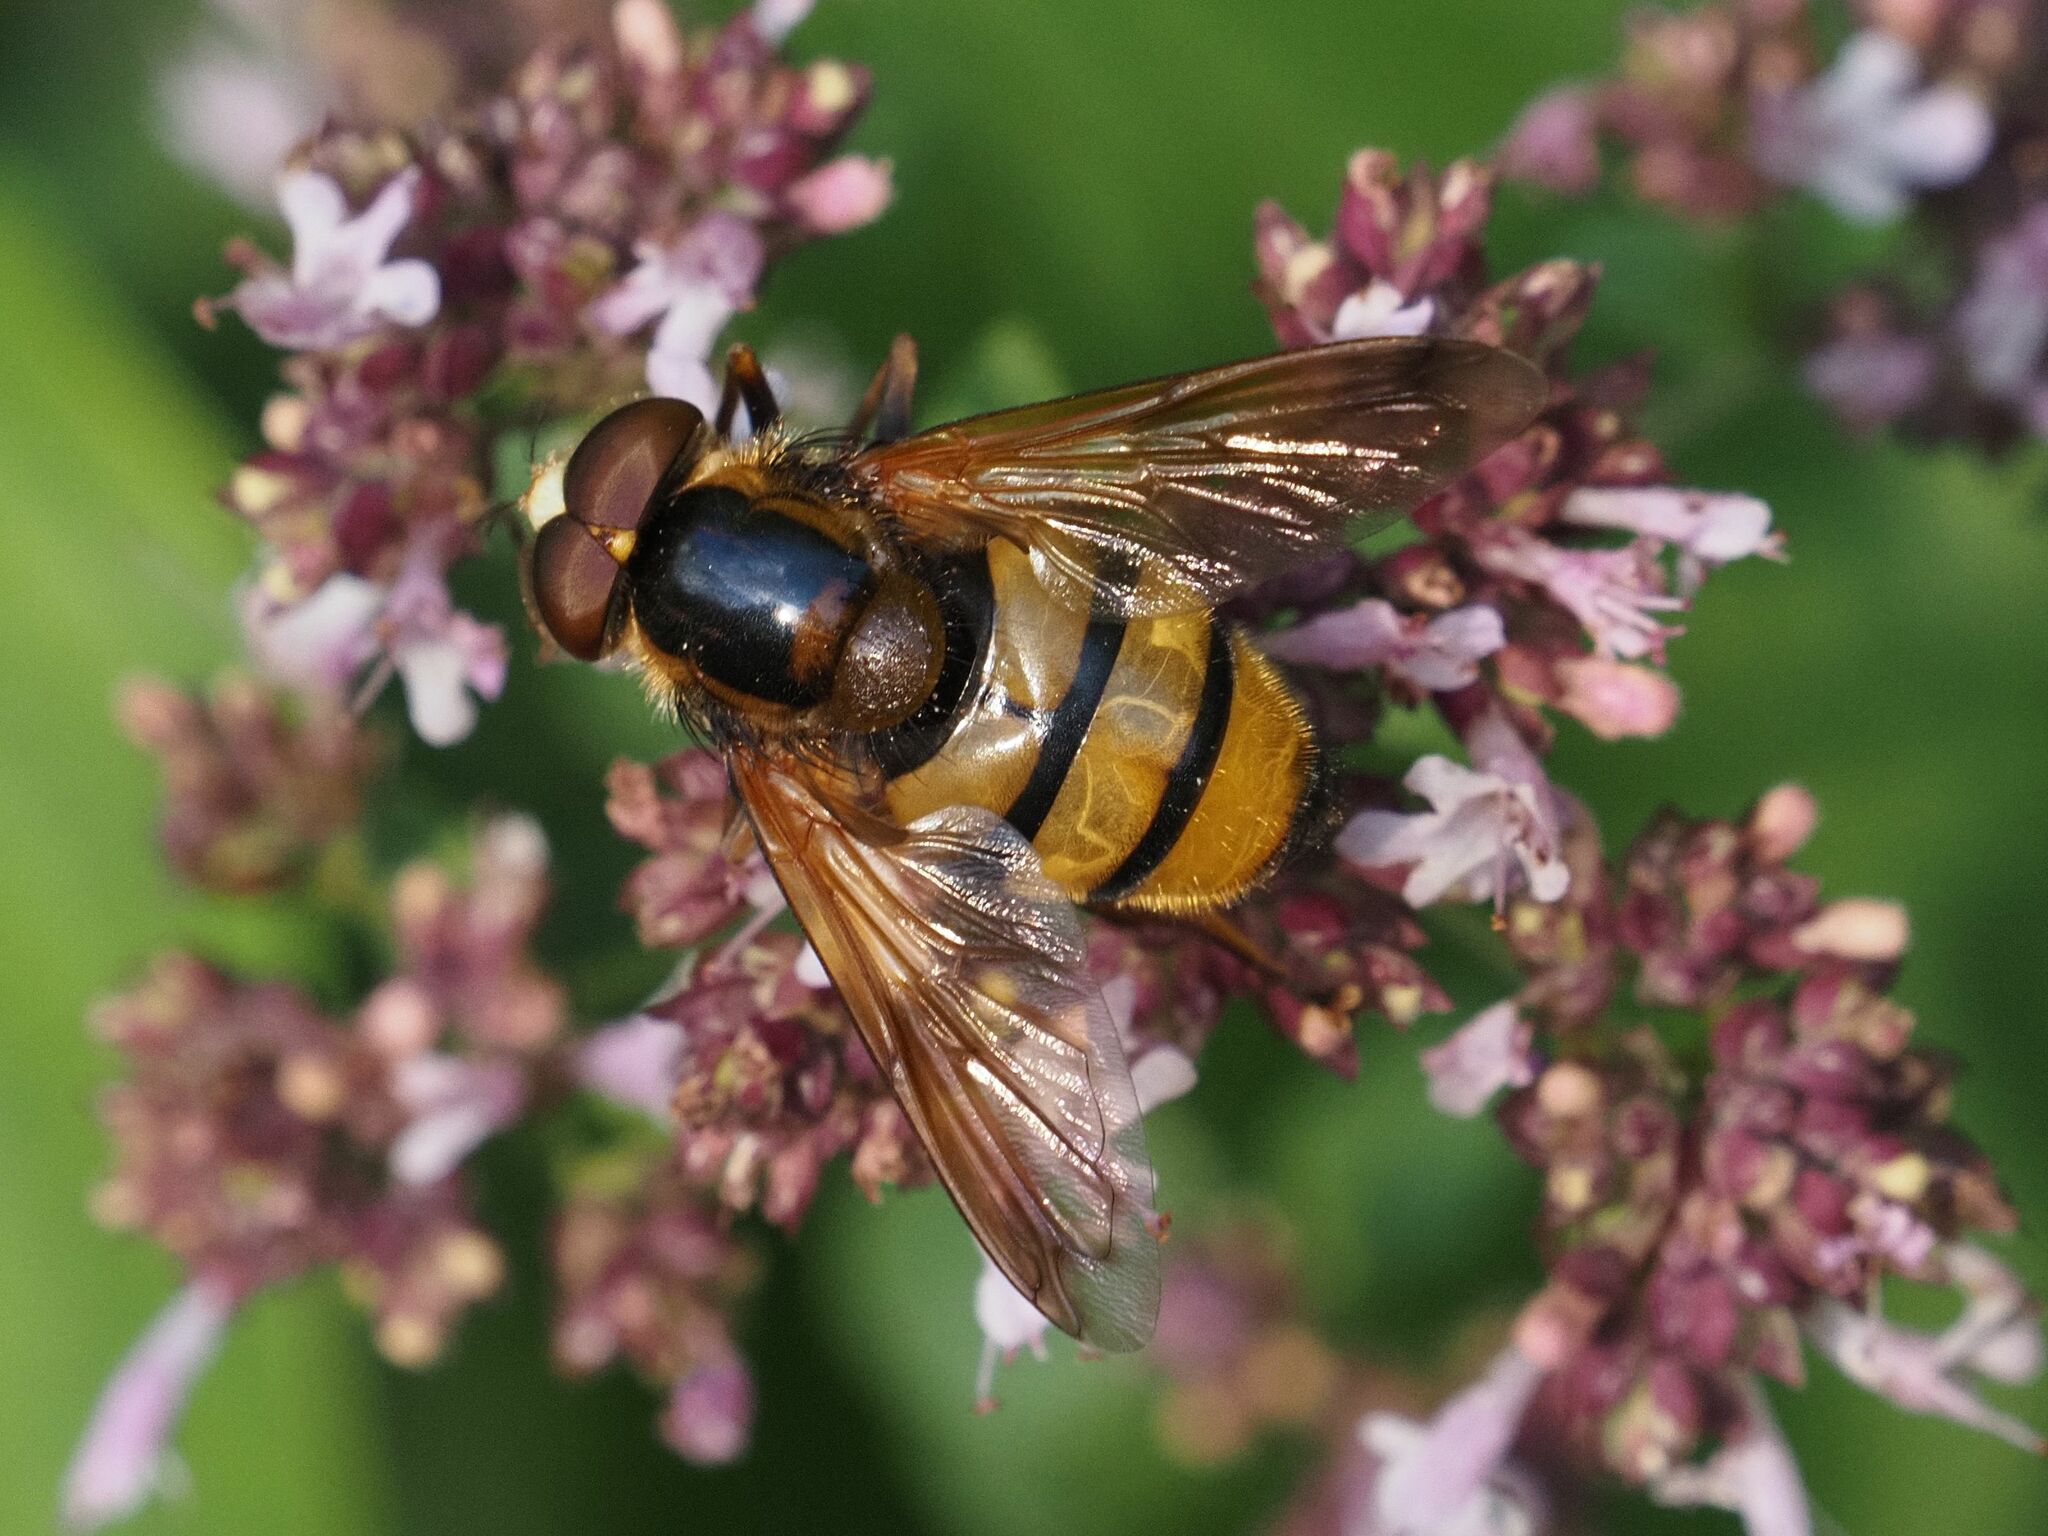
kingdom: Animalia
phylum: Arthropoda
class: Insecta
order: Diptera
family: Syrphidae
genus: Volucella
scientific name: Volucella inanis
